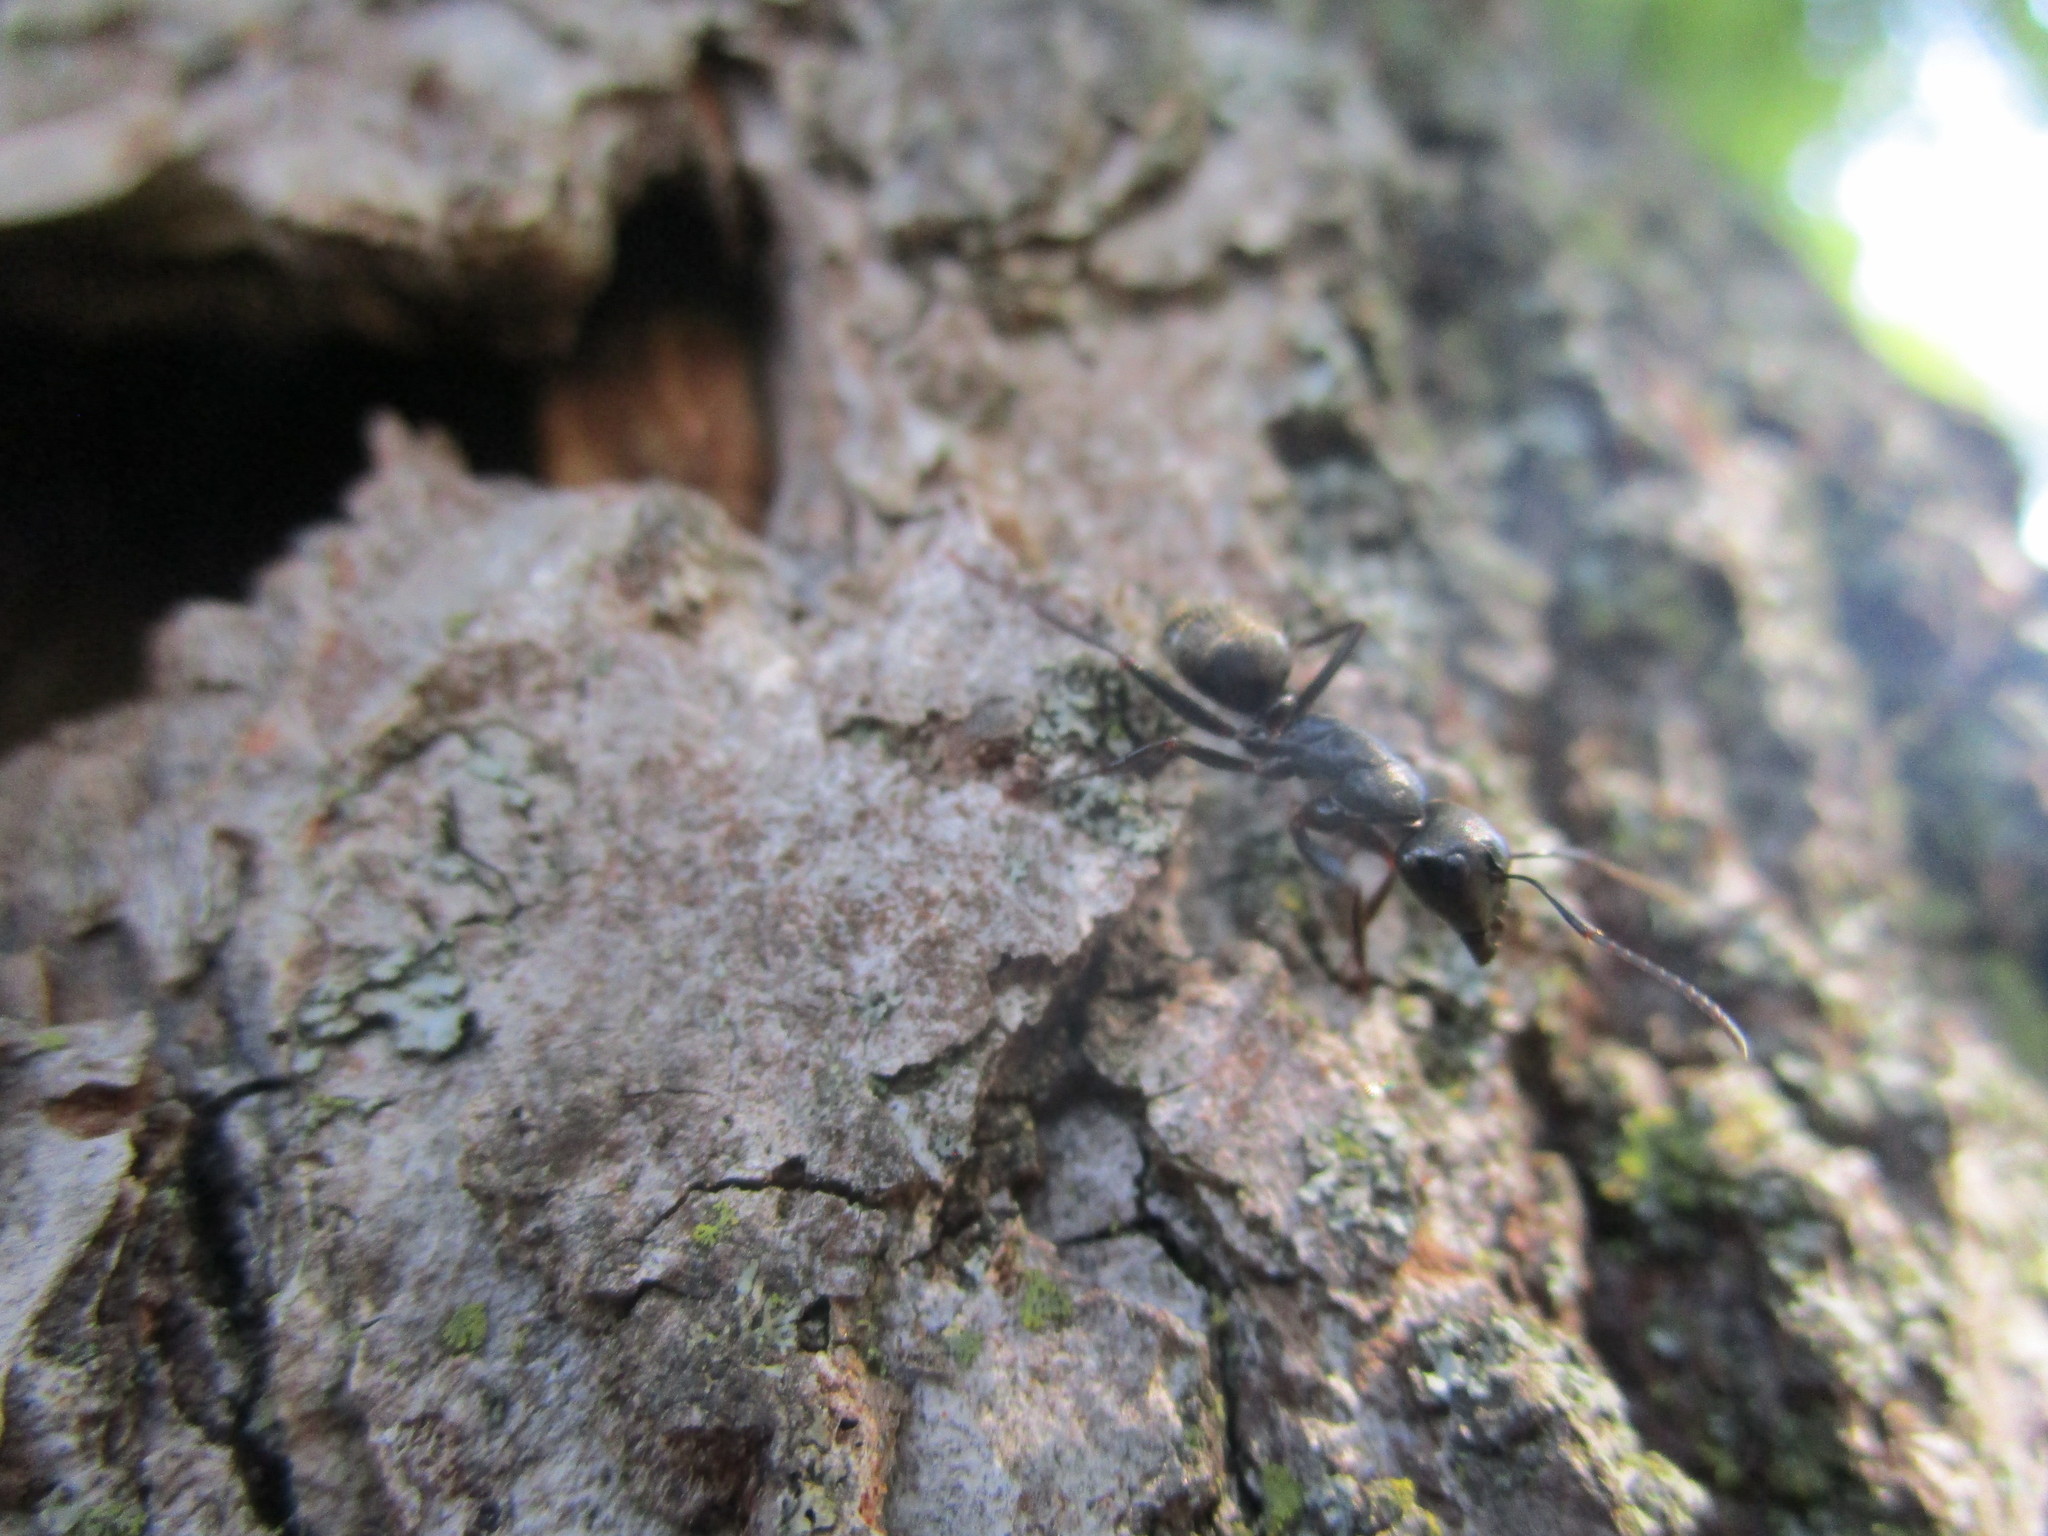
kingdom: Animalia
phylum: Arthropoda
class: Insecta
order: Hymenoptera
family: Formicidae
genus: Camponotus
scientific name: Camponotus pennsylvanicus
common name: Black carpenter ant
